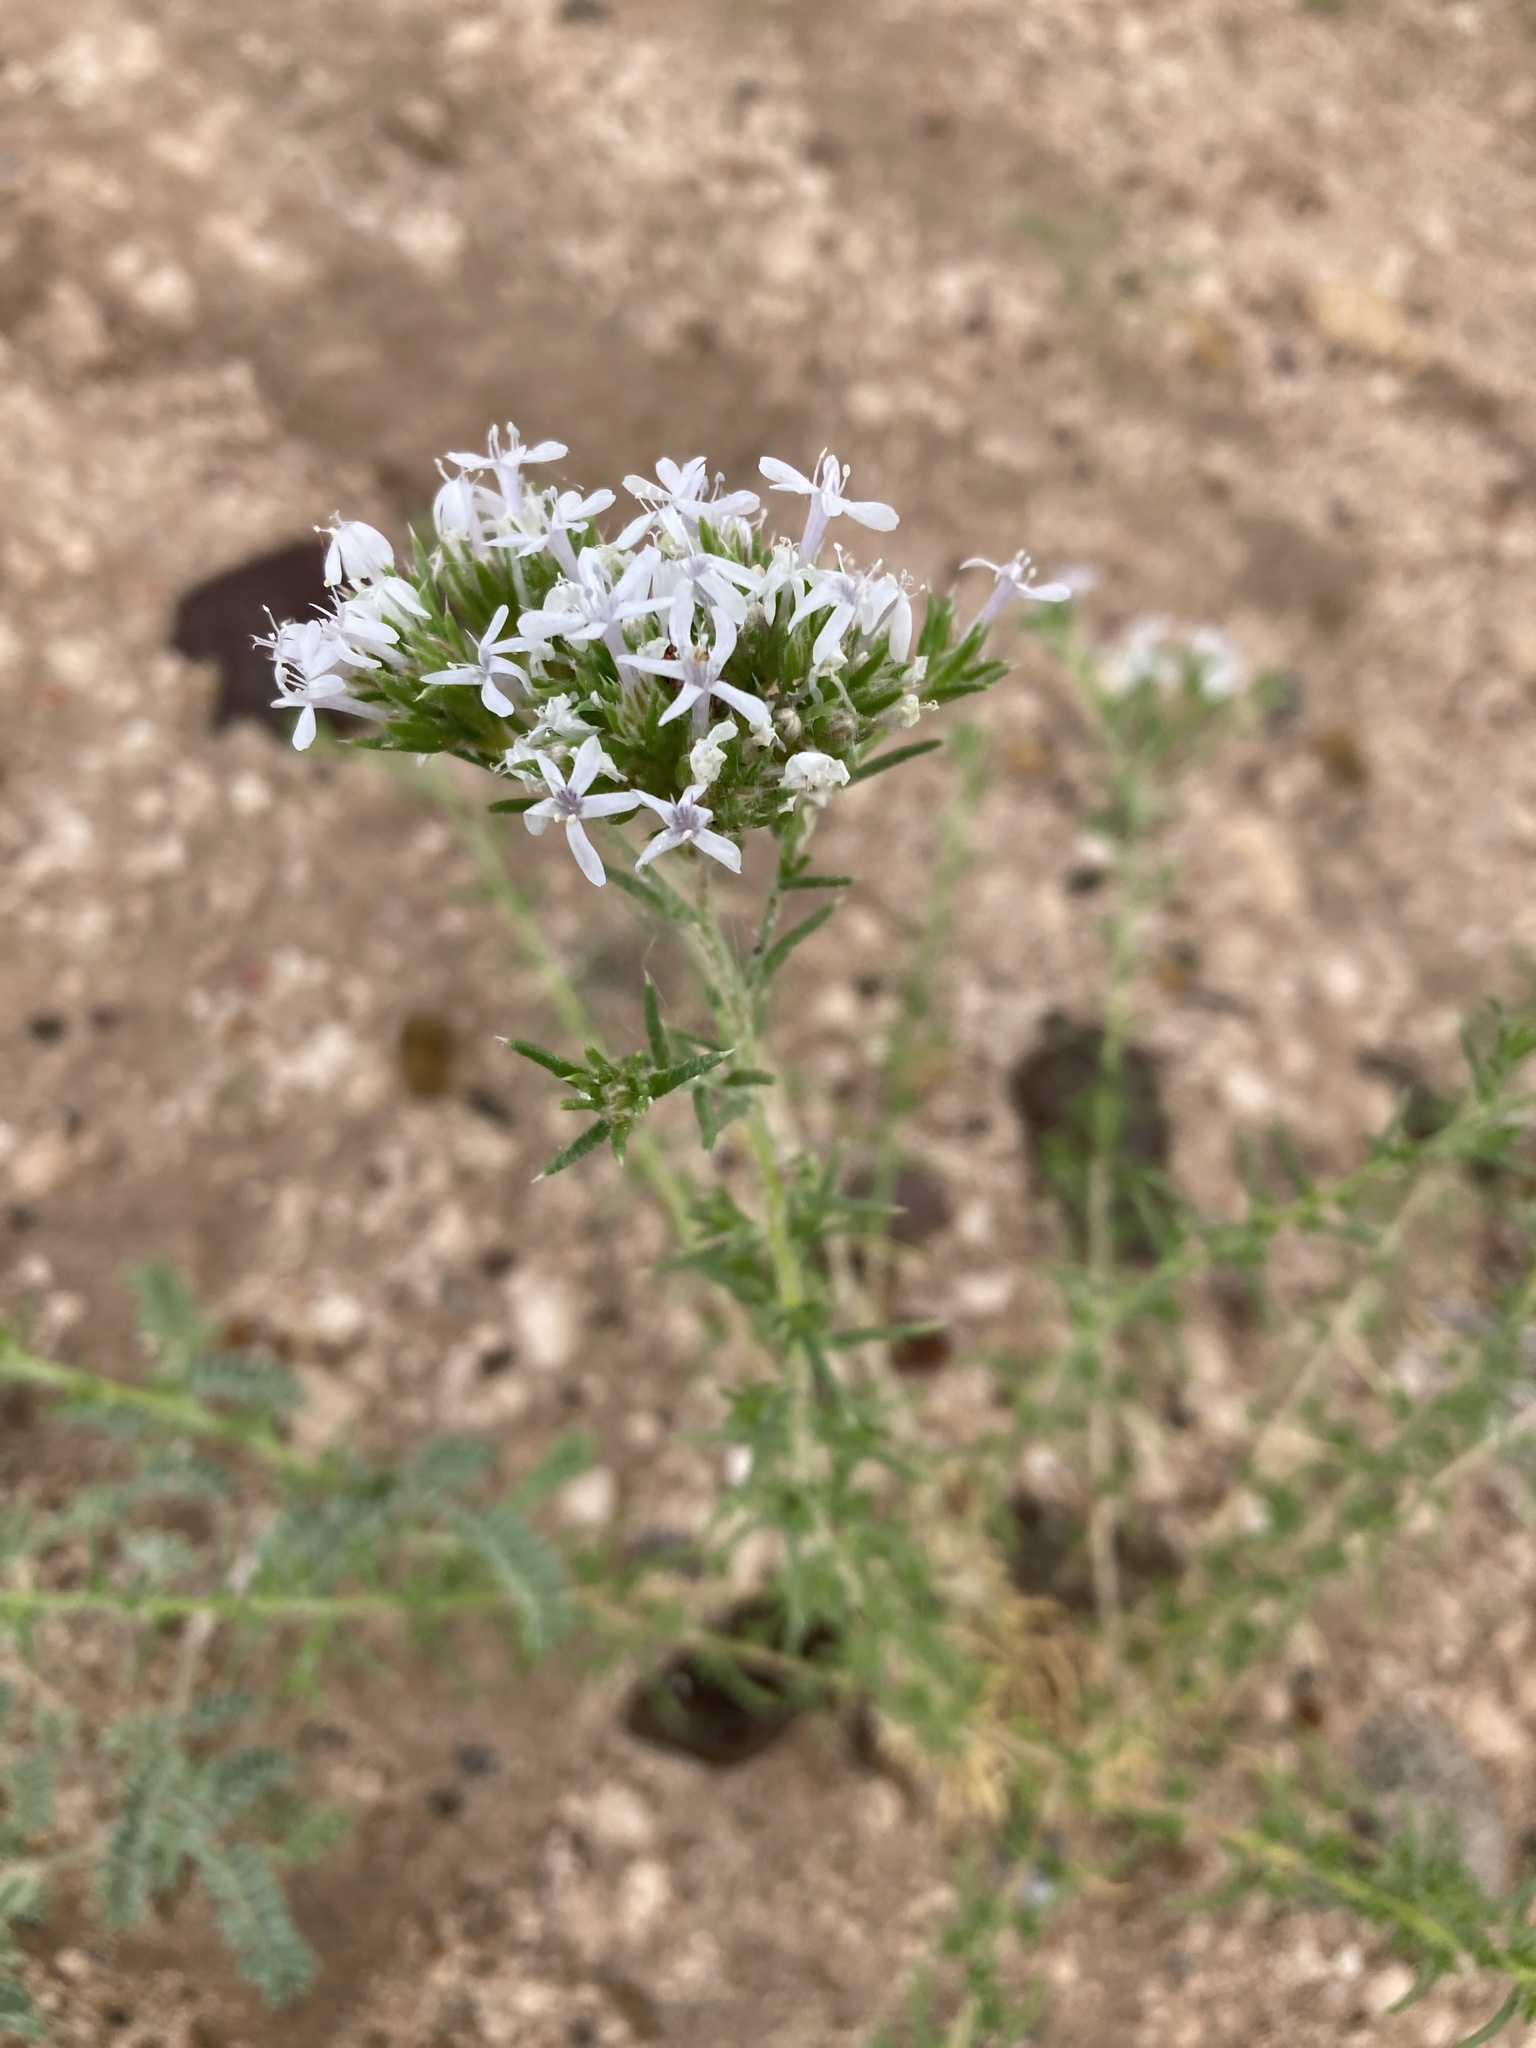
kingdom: Plantae
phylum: Tracheophyta
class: Magnoliopsida
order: Ericales
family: Polemoniaceae
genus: Ipomopsis
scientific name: Ipomopsis wrightii
